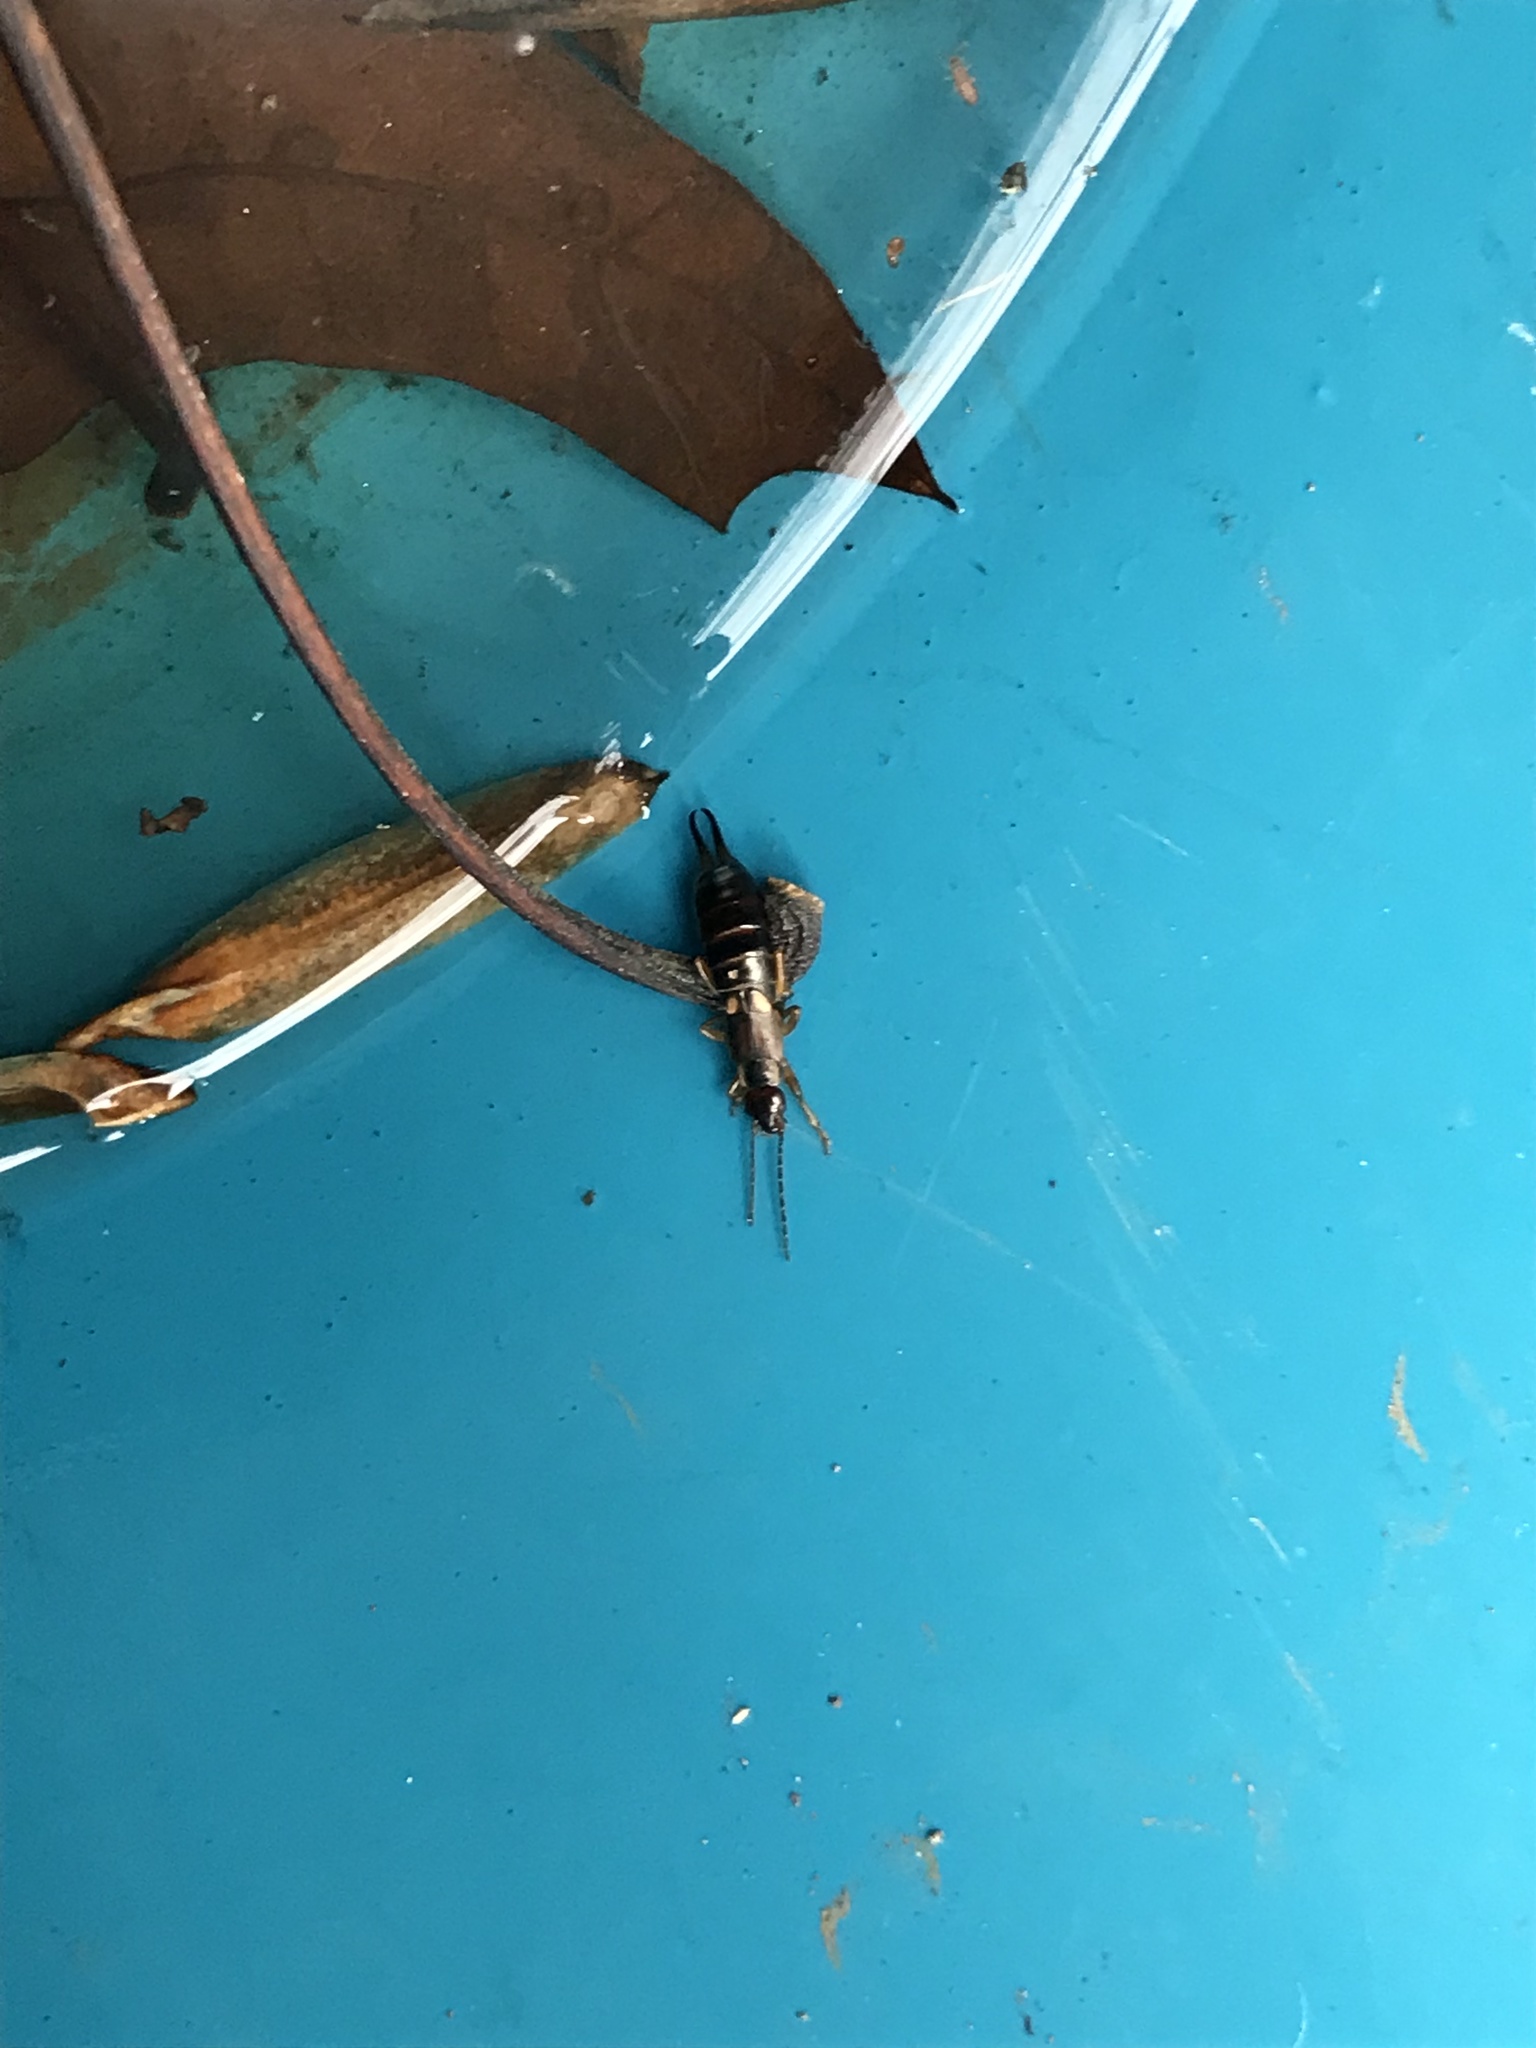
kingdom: Animalia
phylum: Arthropoda
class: Insecta
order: Dermaptera
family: Forficulidae
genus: Forficula
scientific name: Forficula
